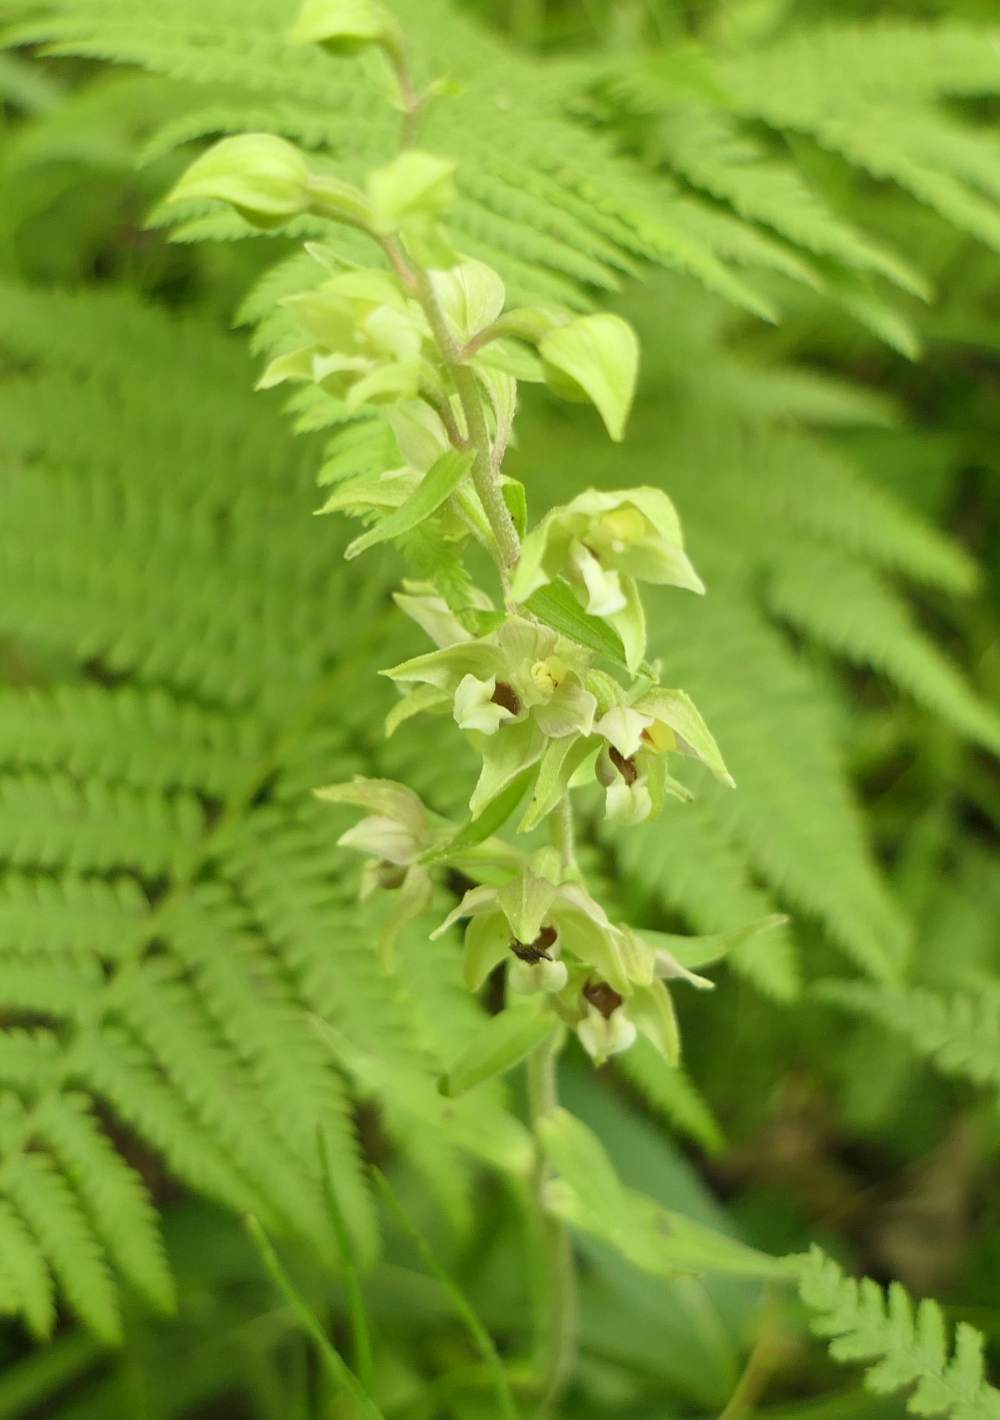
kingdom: Plantae
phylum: Tracheophyta
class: Liliopsida
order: Asparagales
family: Orchidaceae
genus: Epipactis
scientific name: Epipactis helleborine
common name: Broad-leaved helleborine
